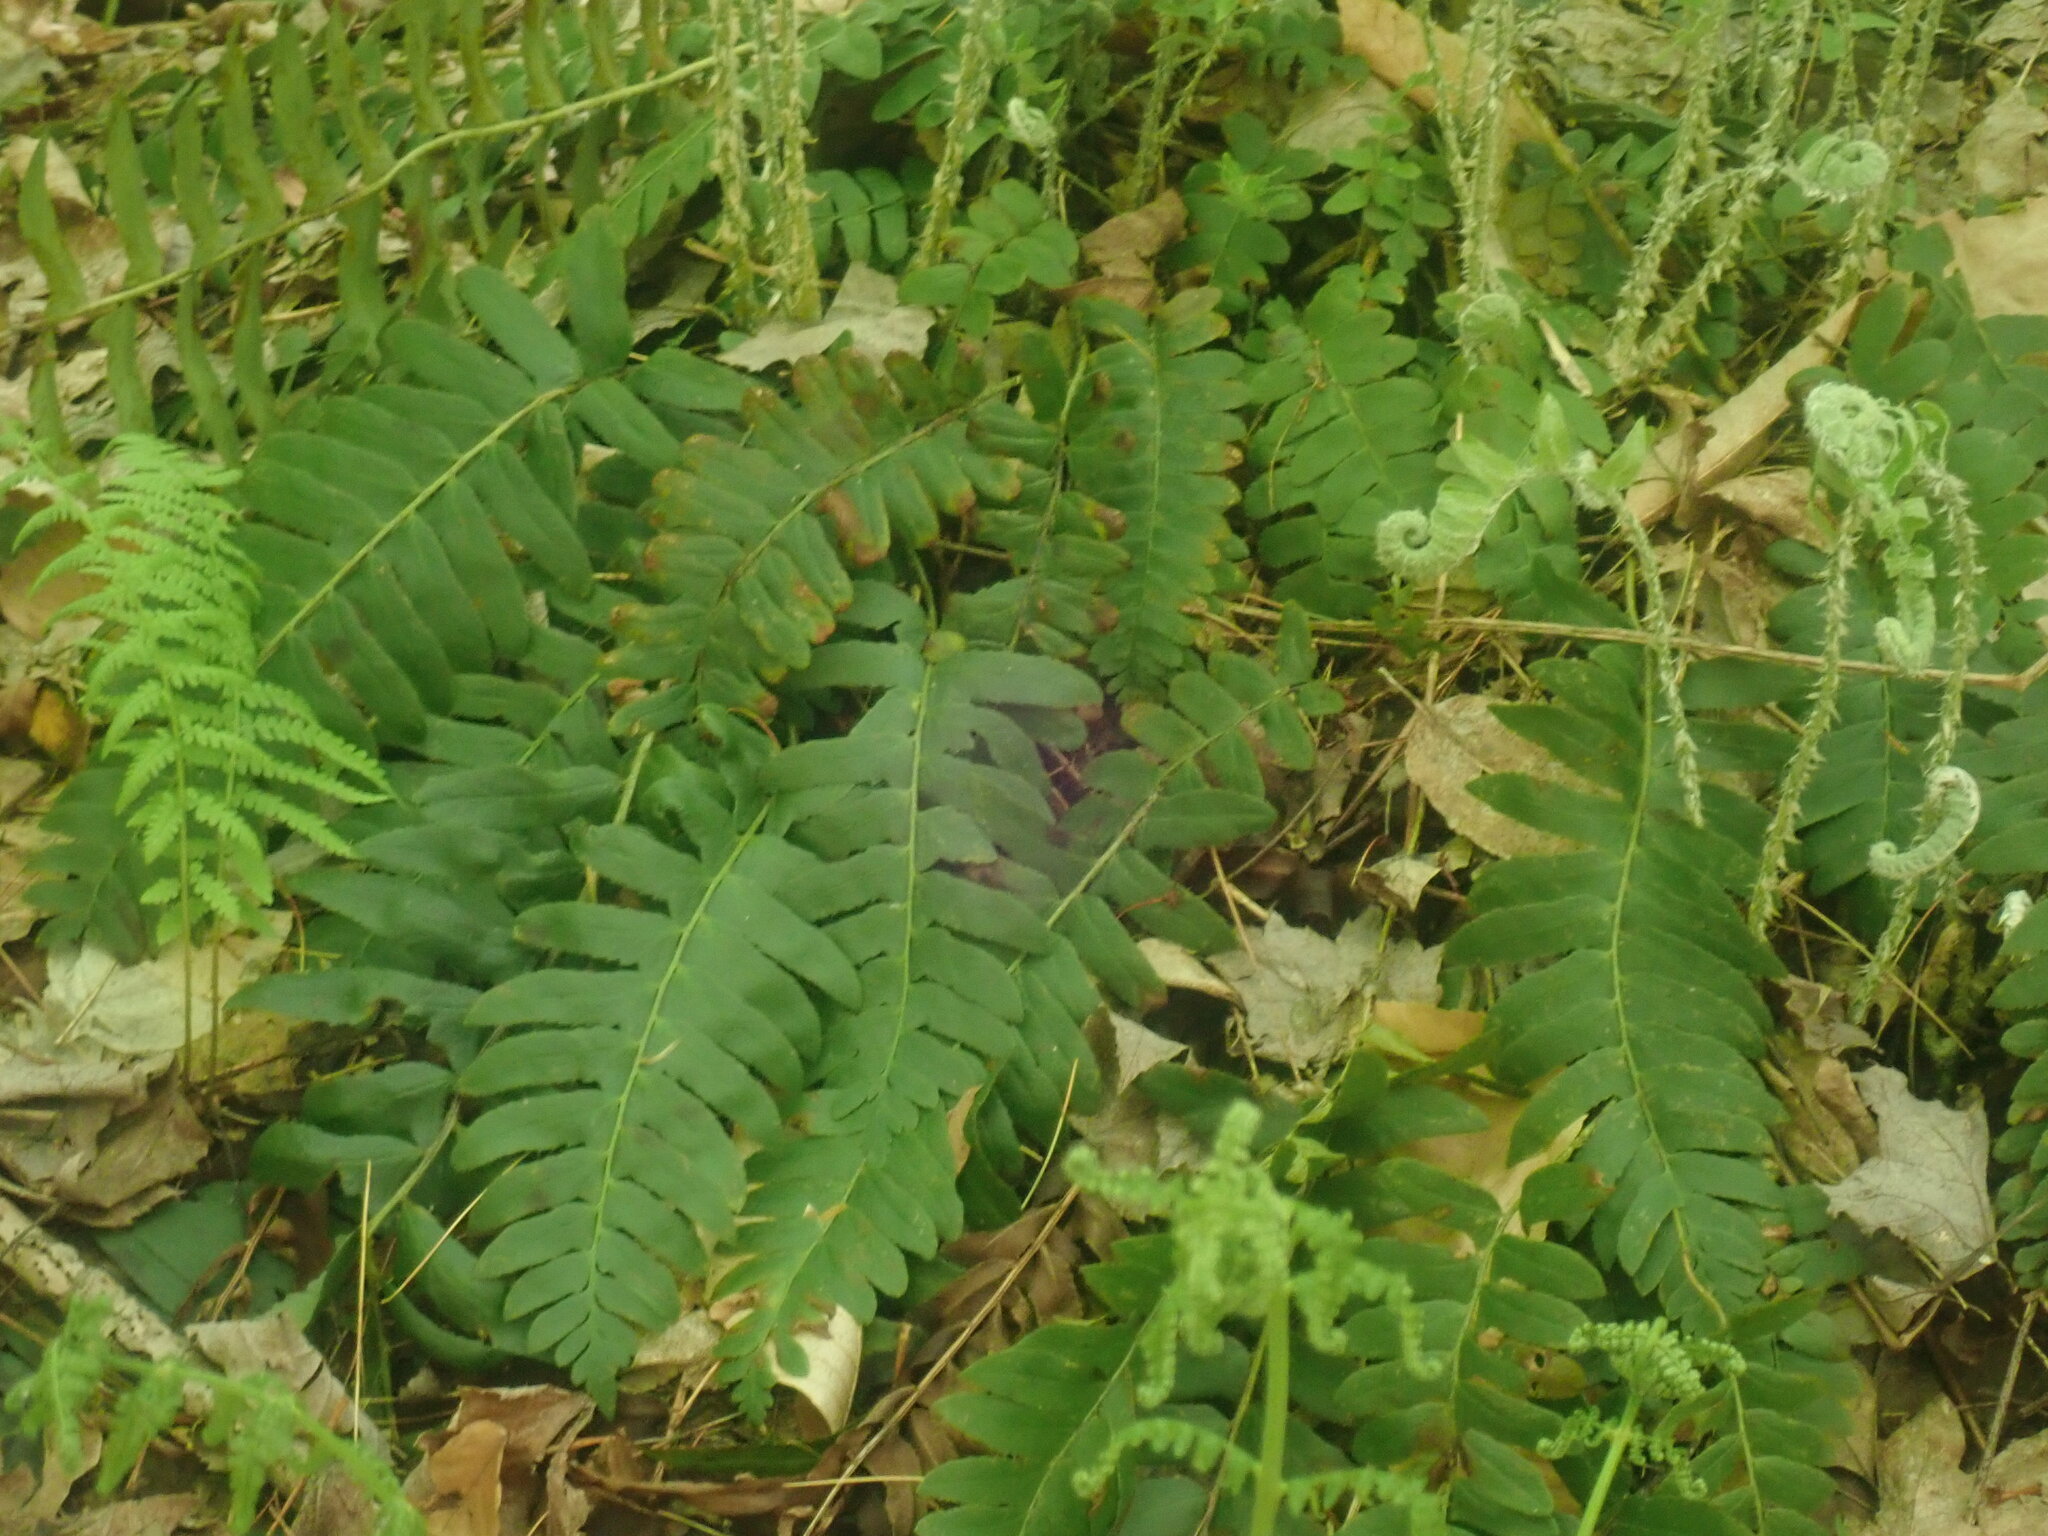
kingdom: Plantae
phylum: Tracheophyta
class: Polypodiopsida
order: Polypodiales
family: Dryopteridaceae
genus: Polystichum
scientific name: Polystichum acrostichoides
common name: Christmas fern
